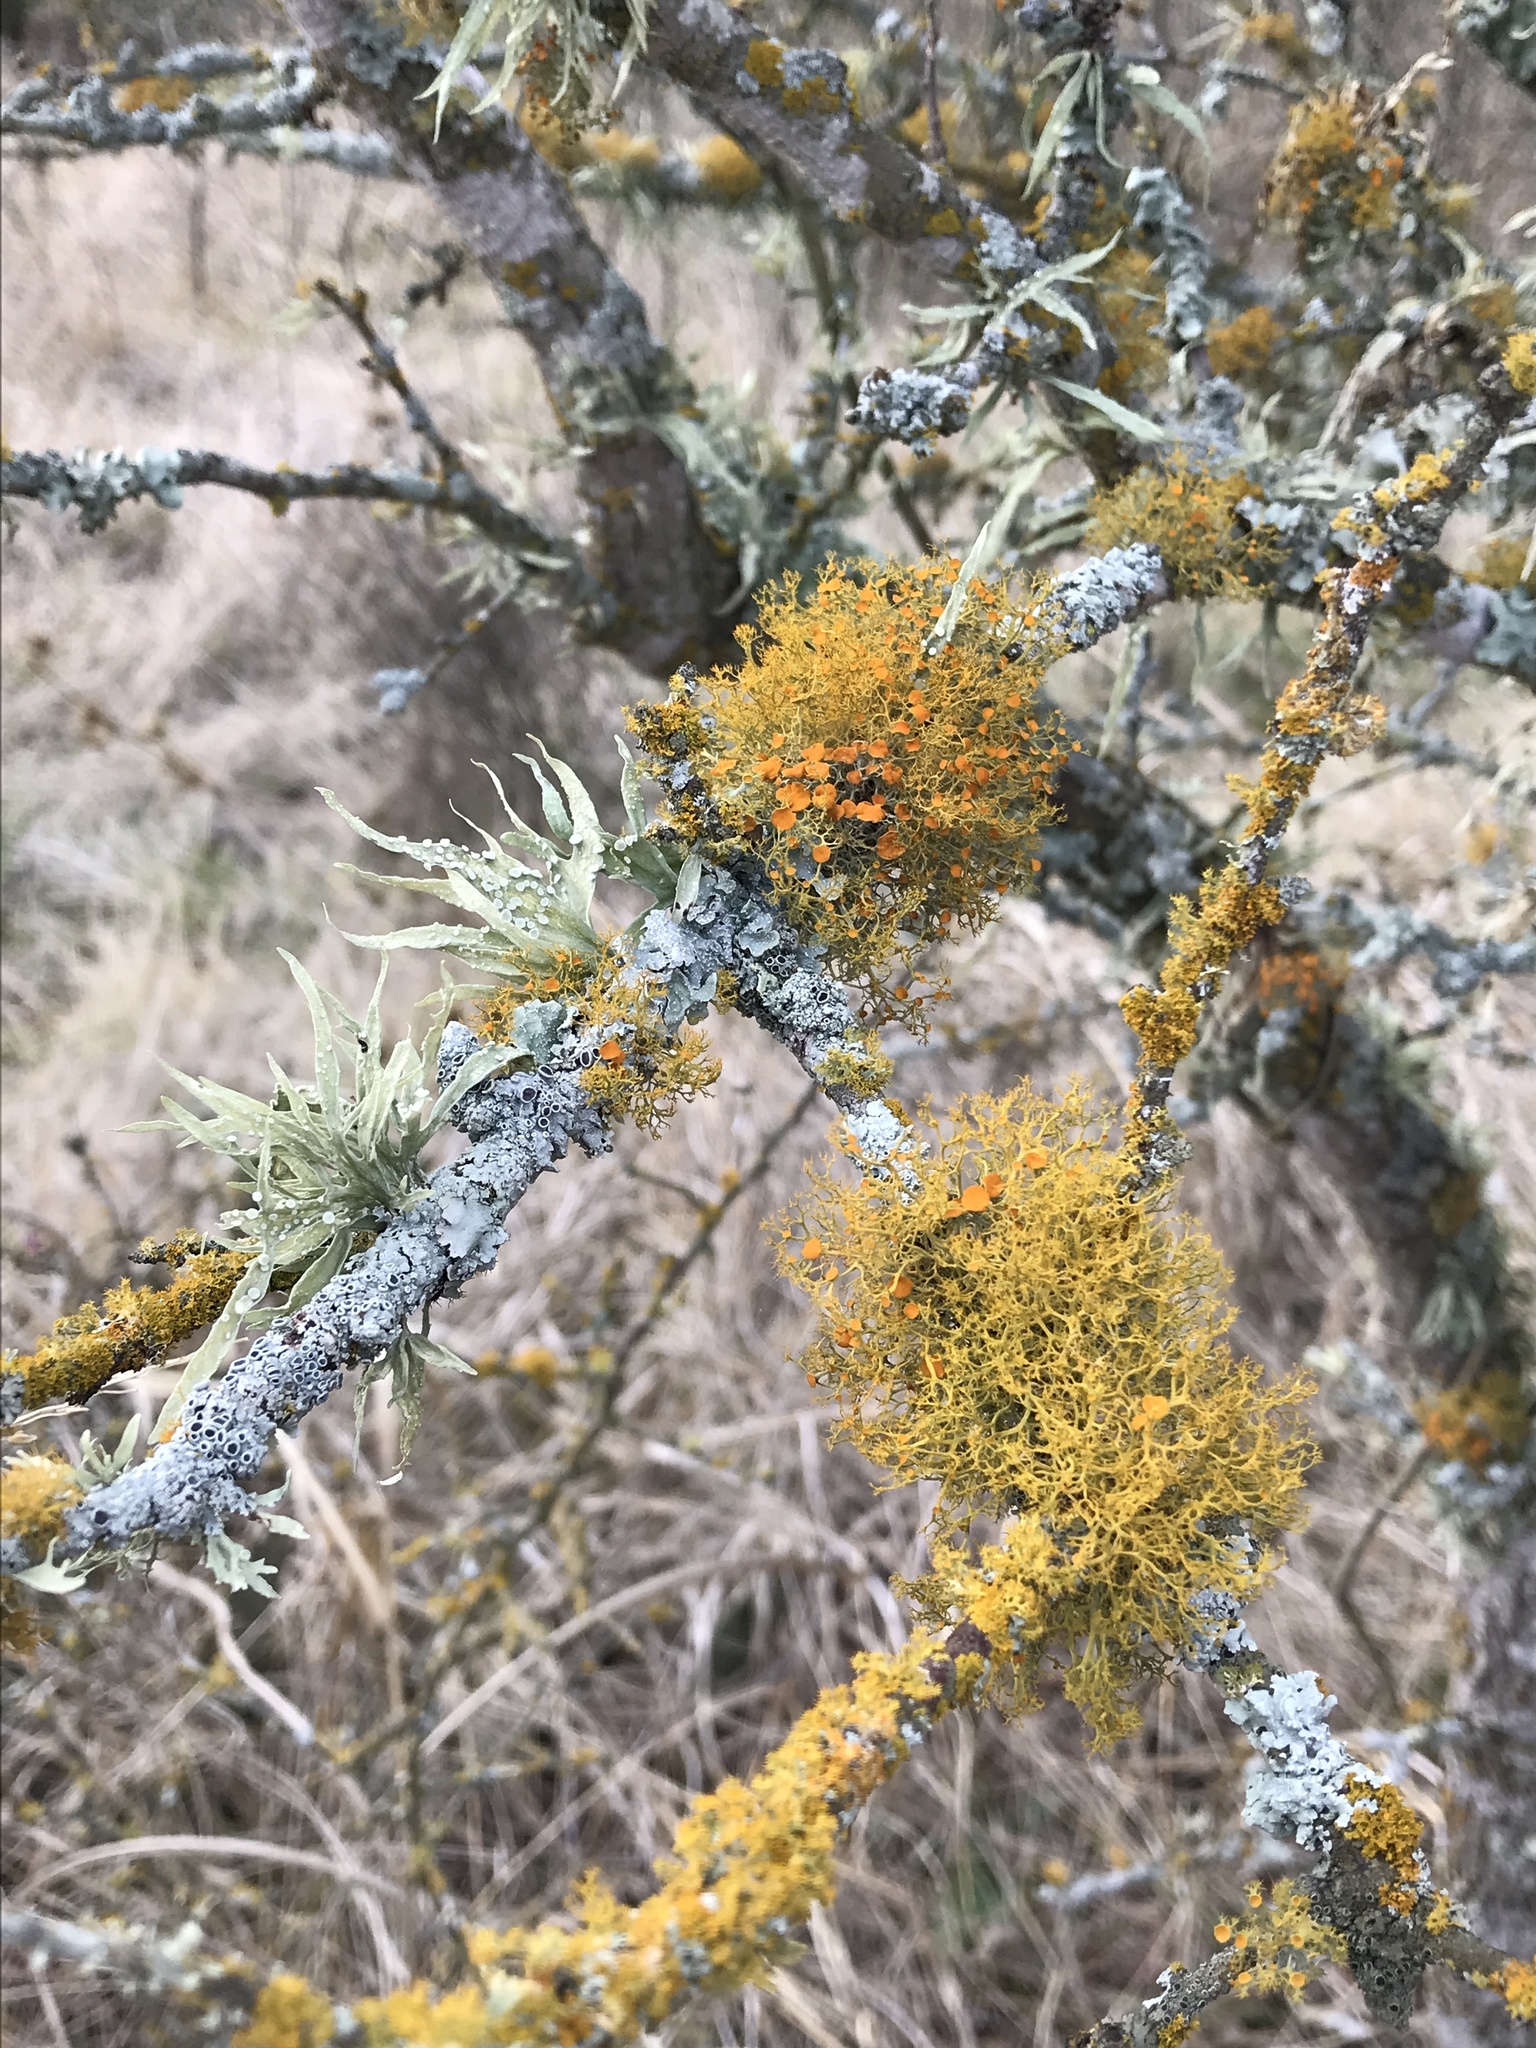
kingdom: Fungi
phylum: Ascomycota
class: Lecanoromycetes
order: Teloschistales
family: Teloschistaceae
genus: Teloschistes
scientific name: Teloschistes exilis
